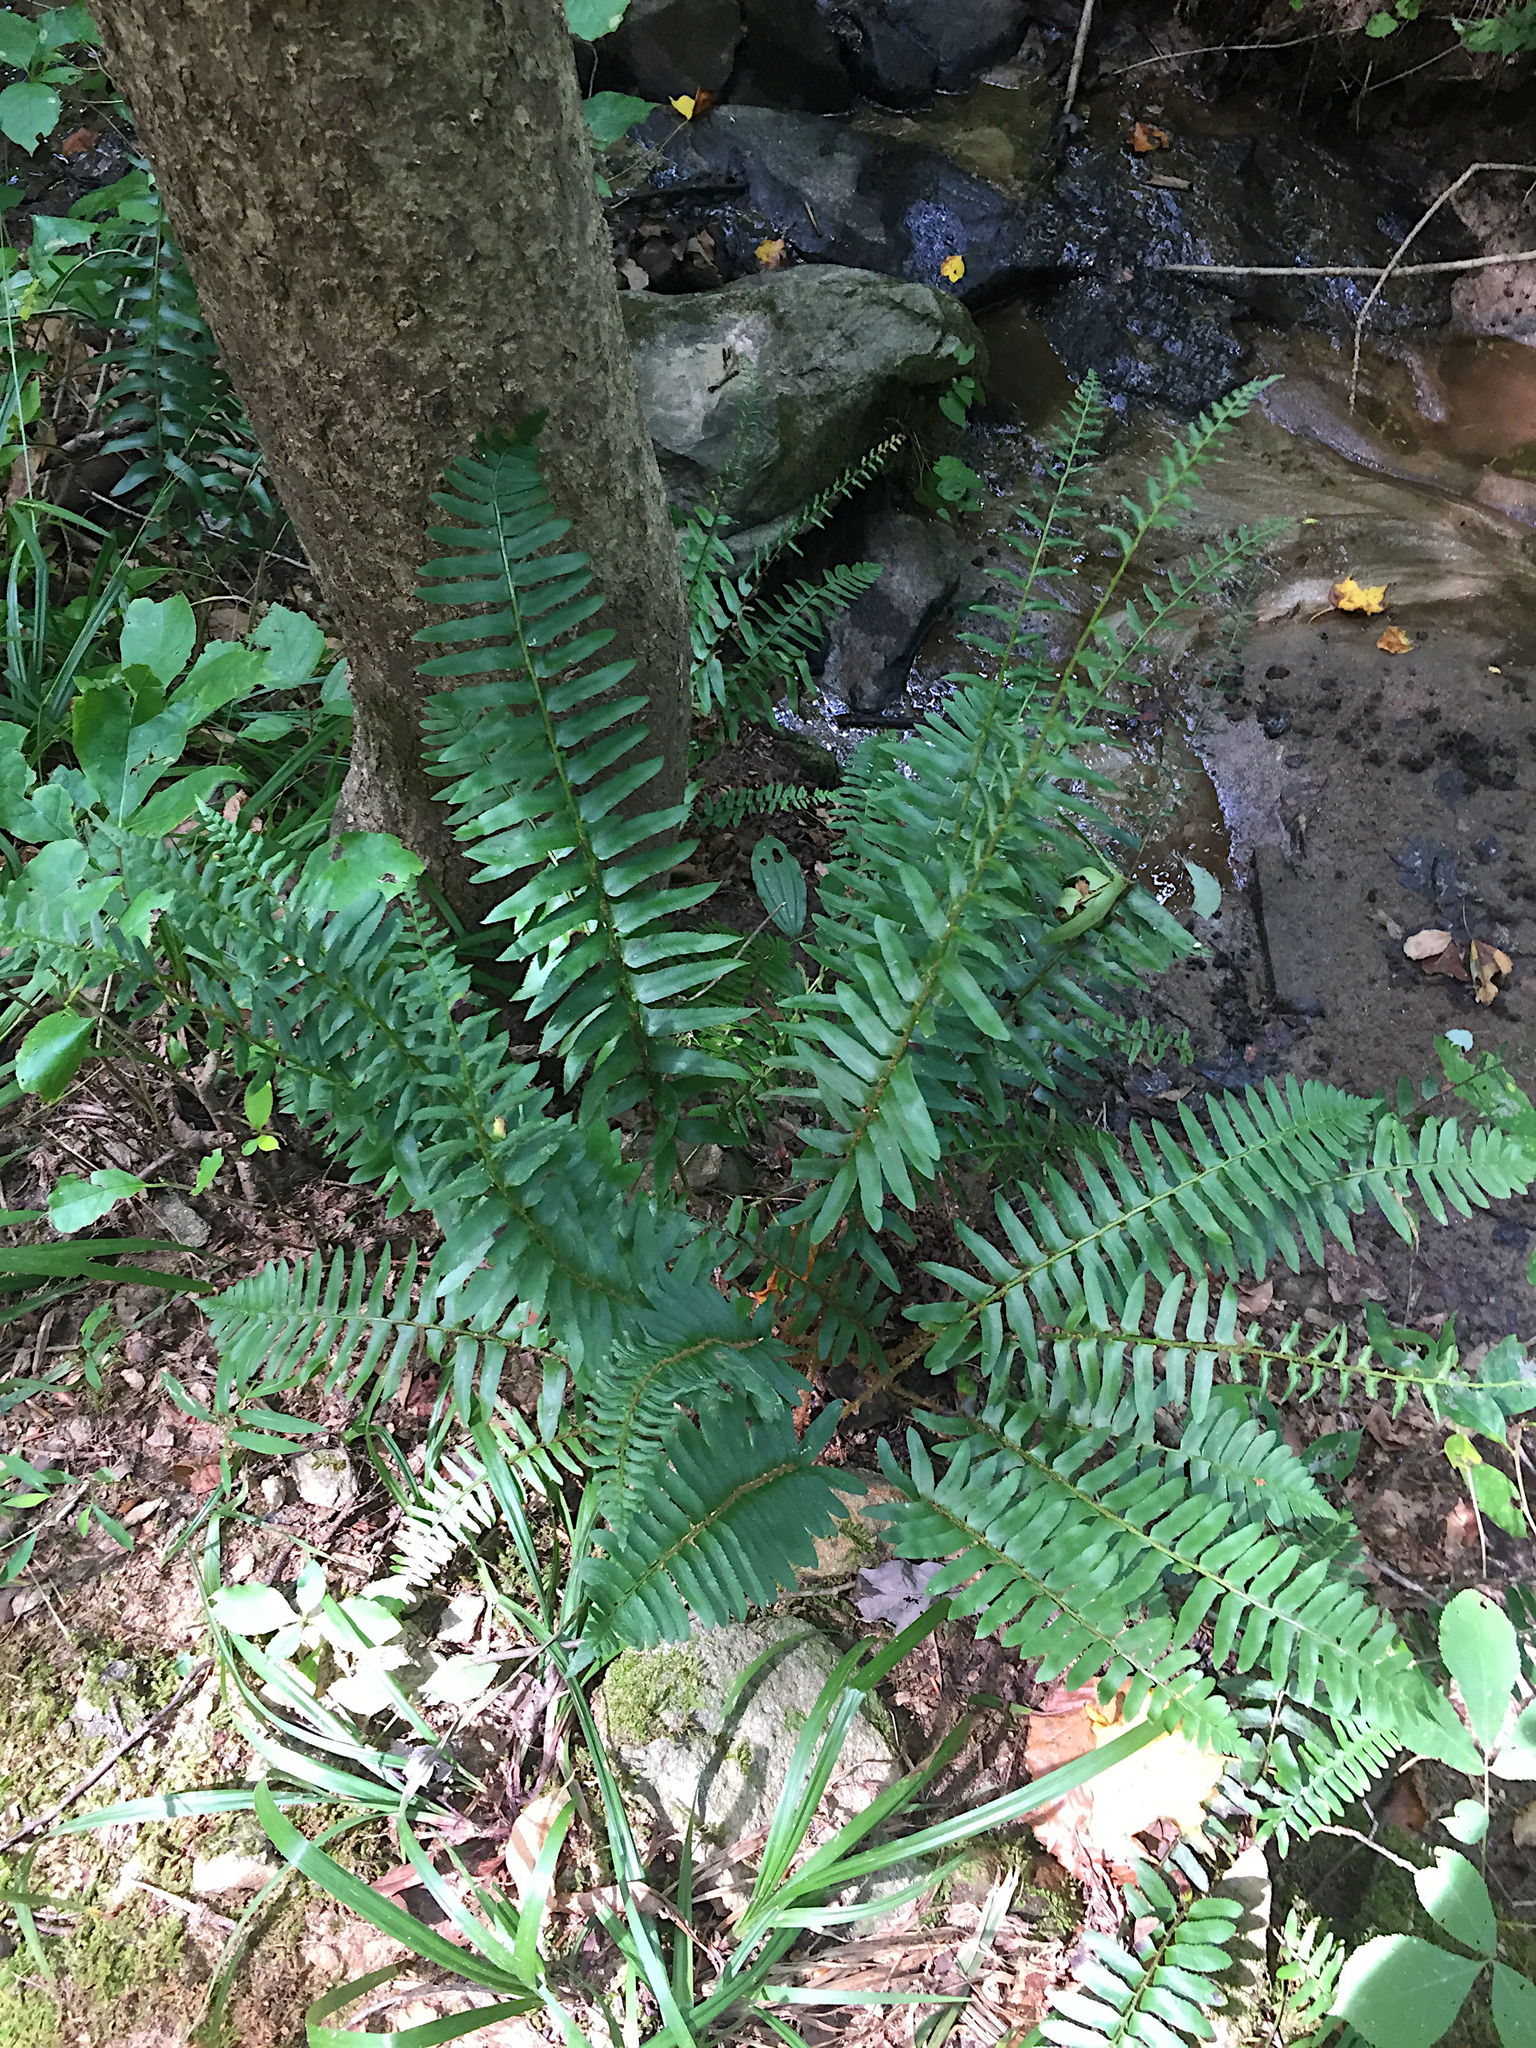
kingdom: Plantae
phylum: Tracheophyta
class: Polypodiopsida
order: Polypodiales
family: Dryopteridaceae
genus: Polystichum
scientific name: Polystichum acrostichoides
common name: Christmas fern
